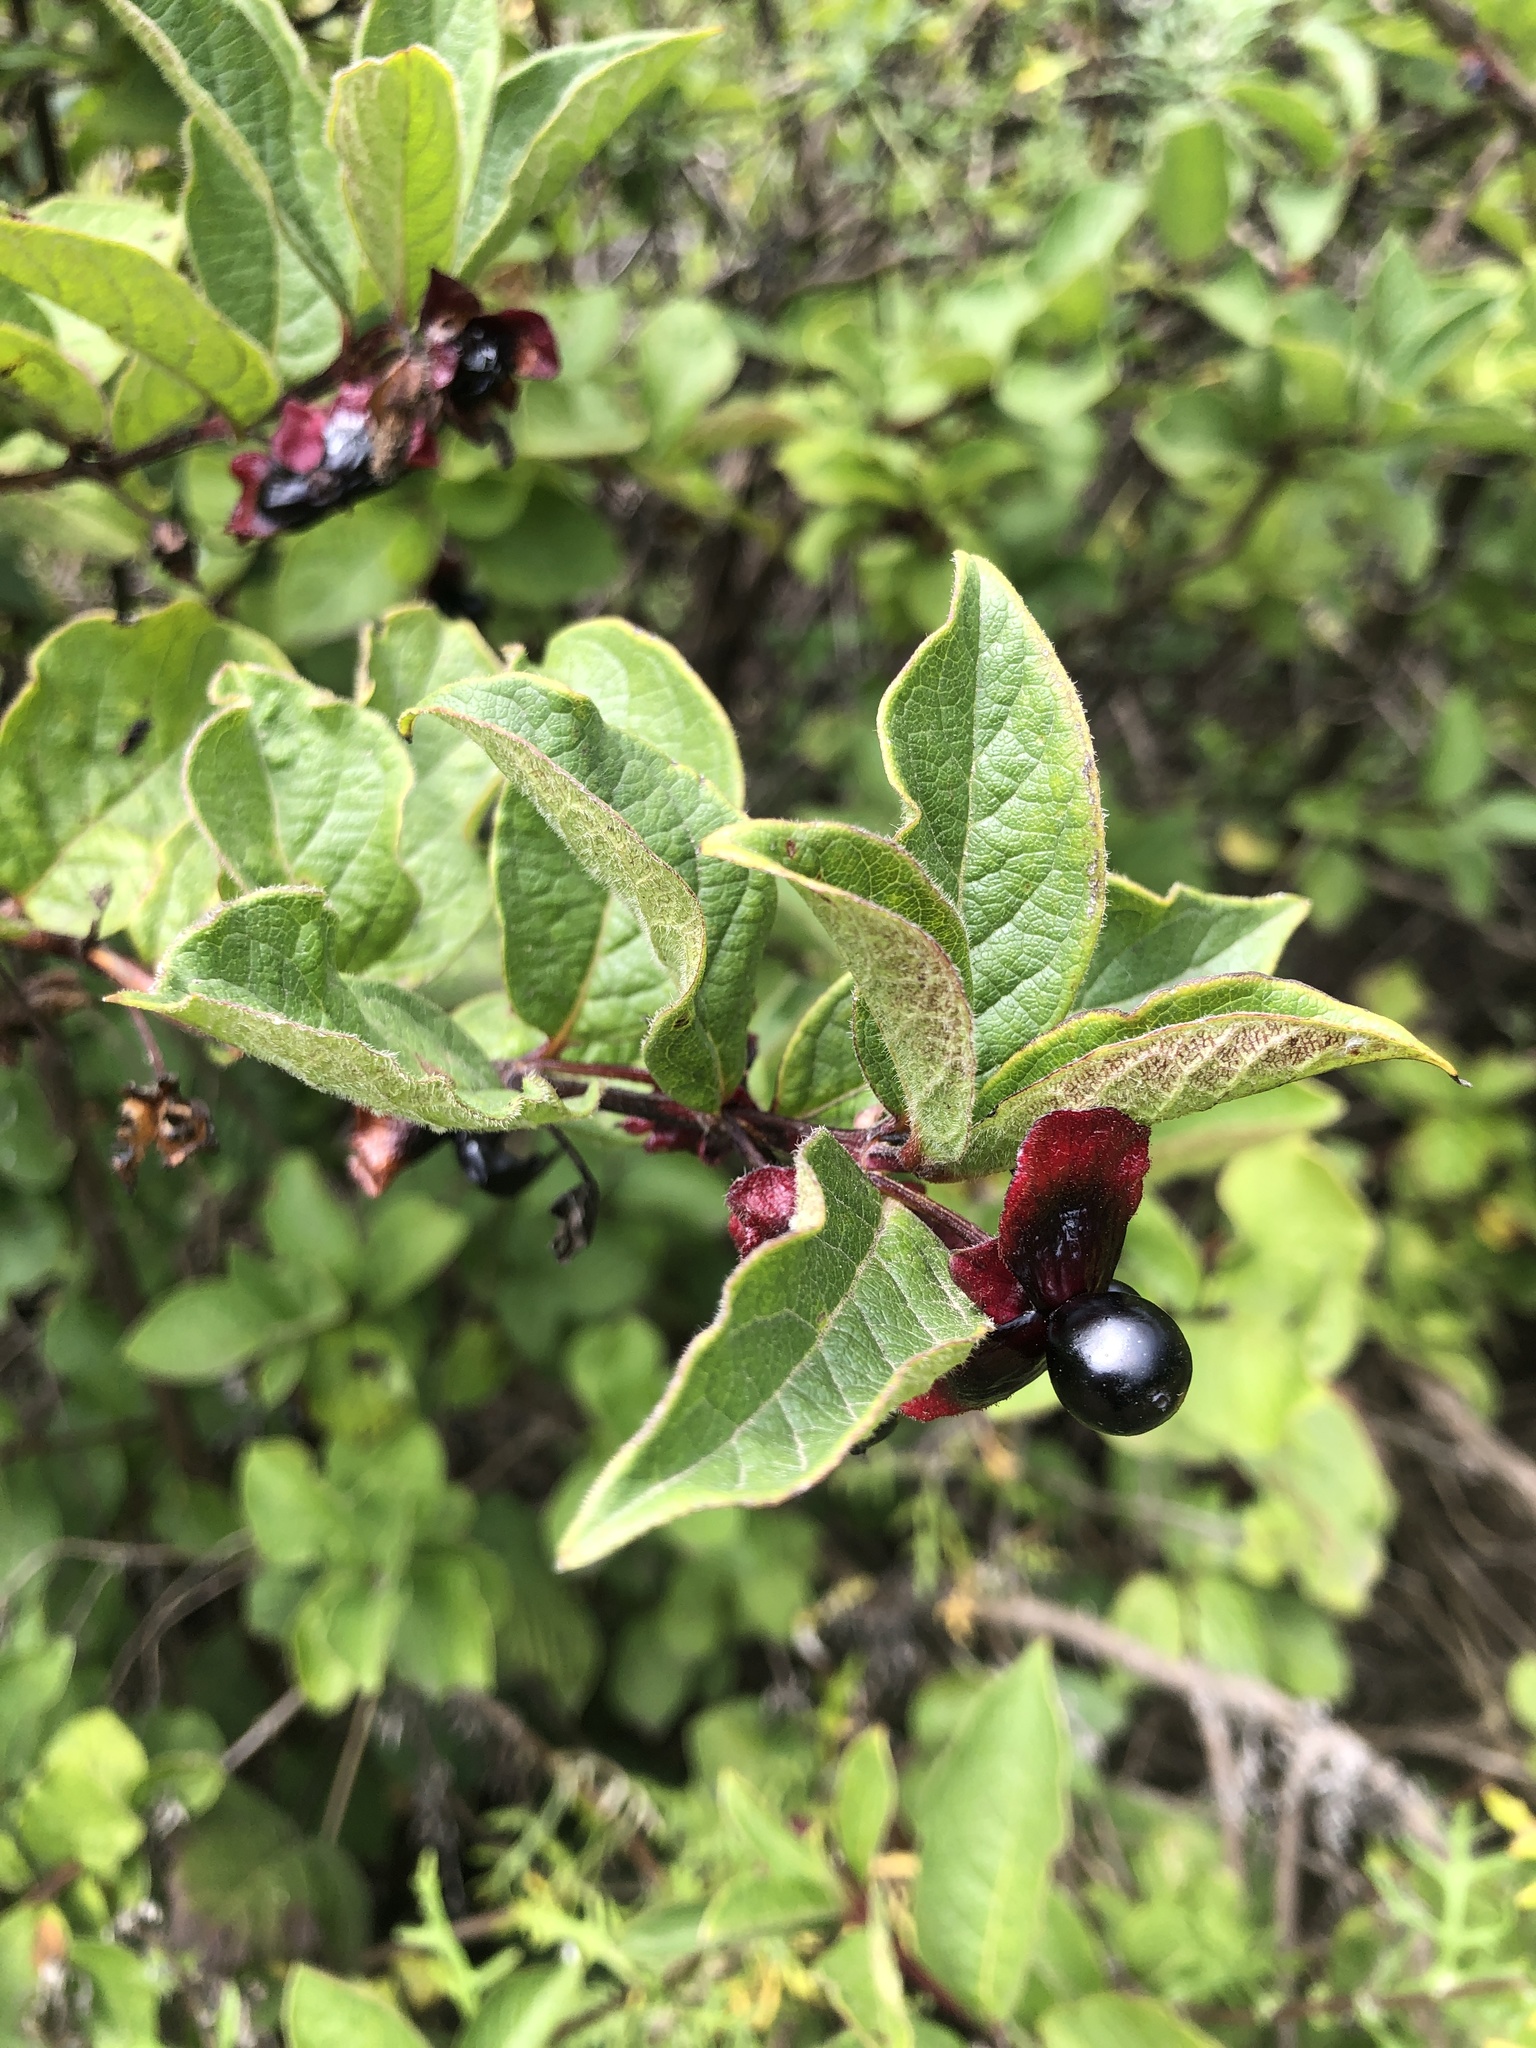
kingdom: Plantae
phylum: Tracheophyta
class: Magnoliopsida
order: Dipsacales
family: Caprifoliaceae
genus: Lonicera
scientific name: Lonicera involucrata
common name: Californian honeysuckle
